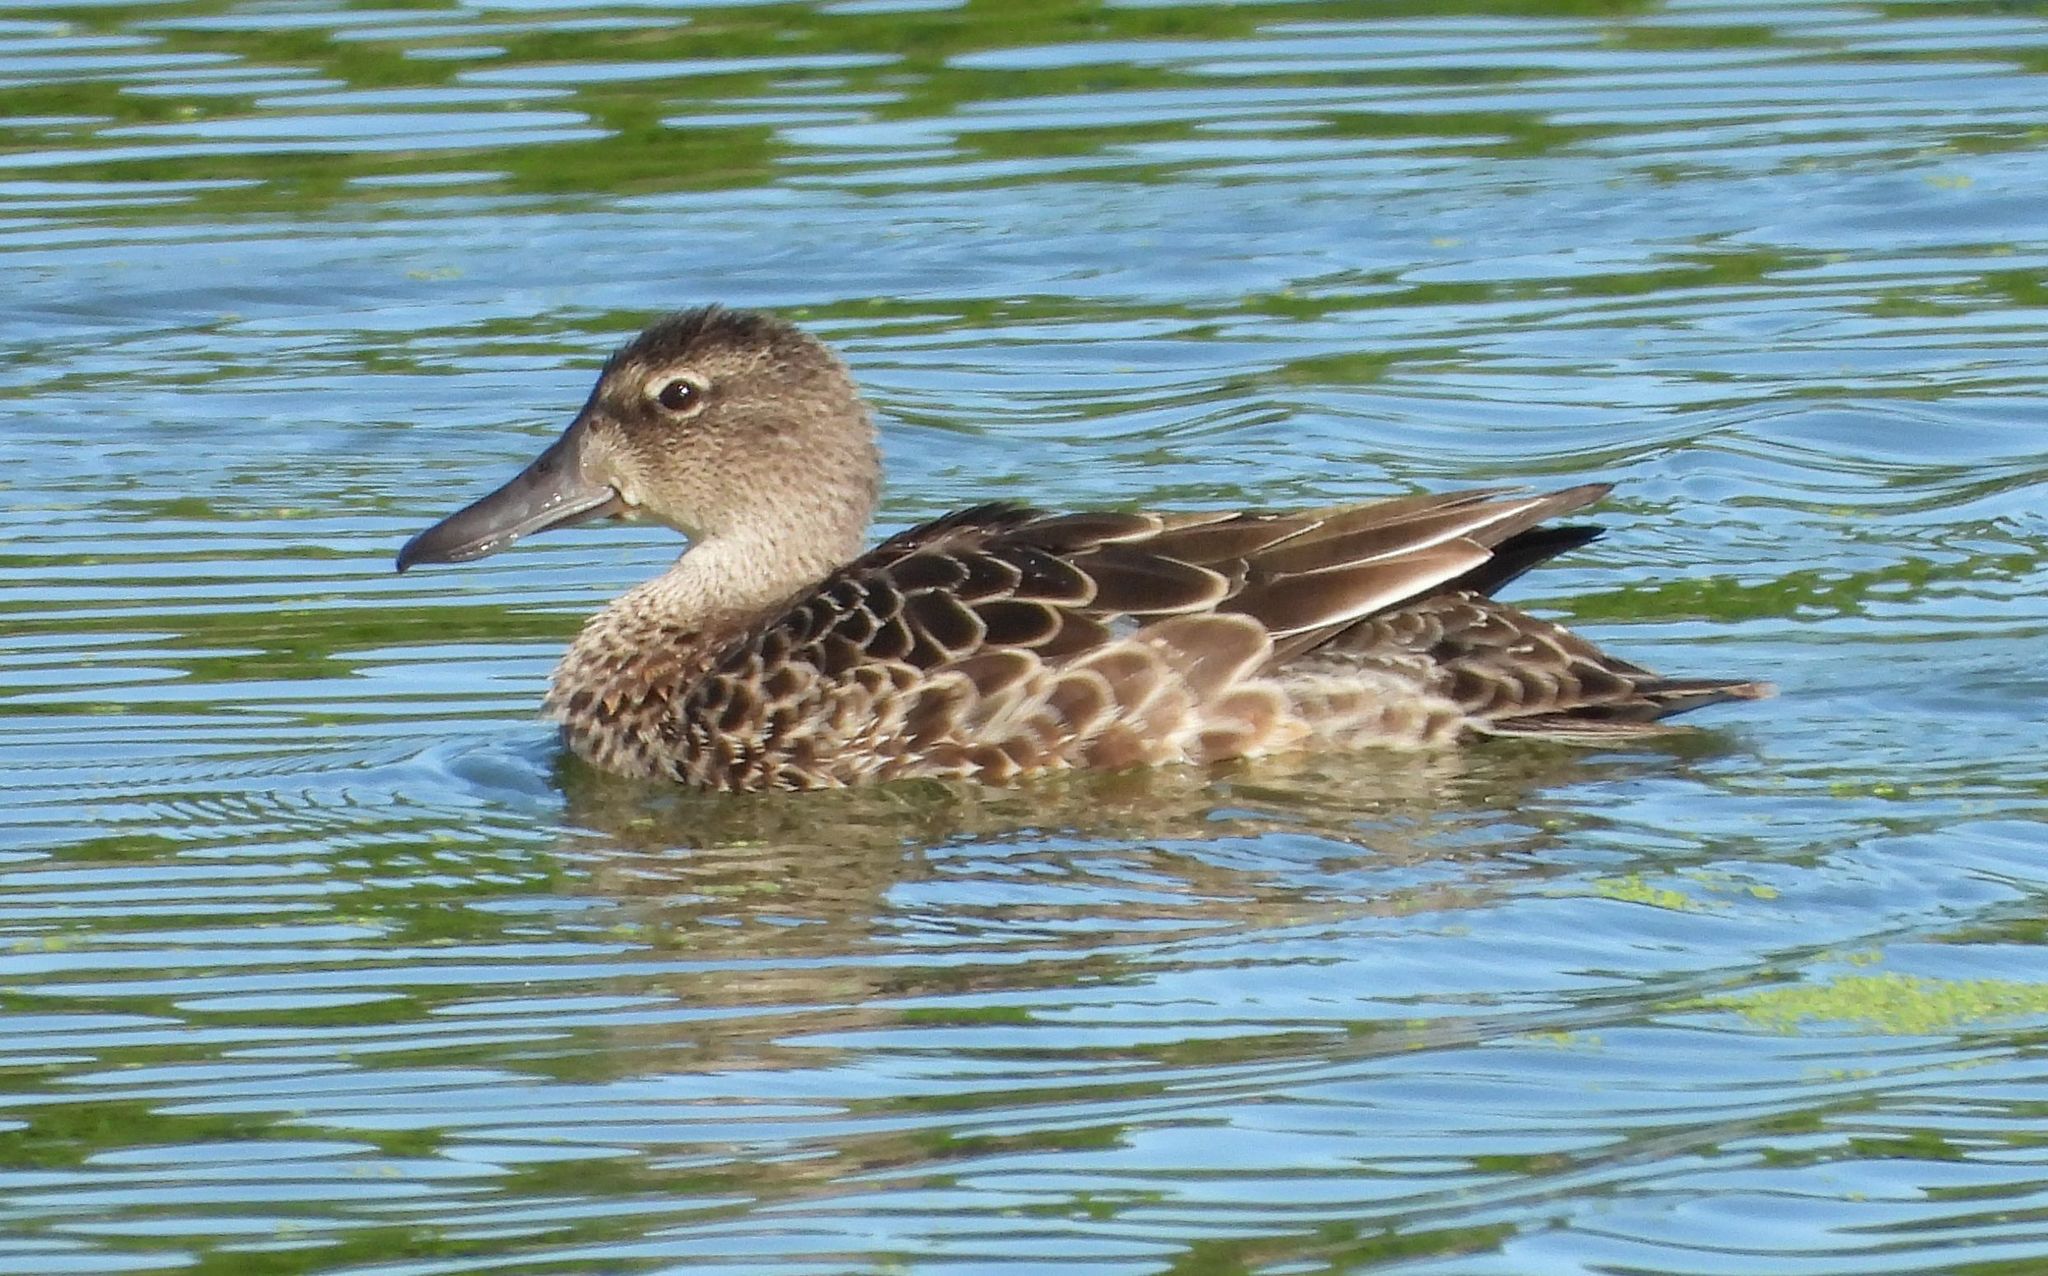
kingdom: Animalia
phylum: Chordata
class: Aves
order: Anseriformes
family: Anatidae
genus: Spatula
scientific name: Spatula discors
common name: Blue-winged teal
